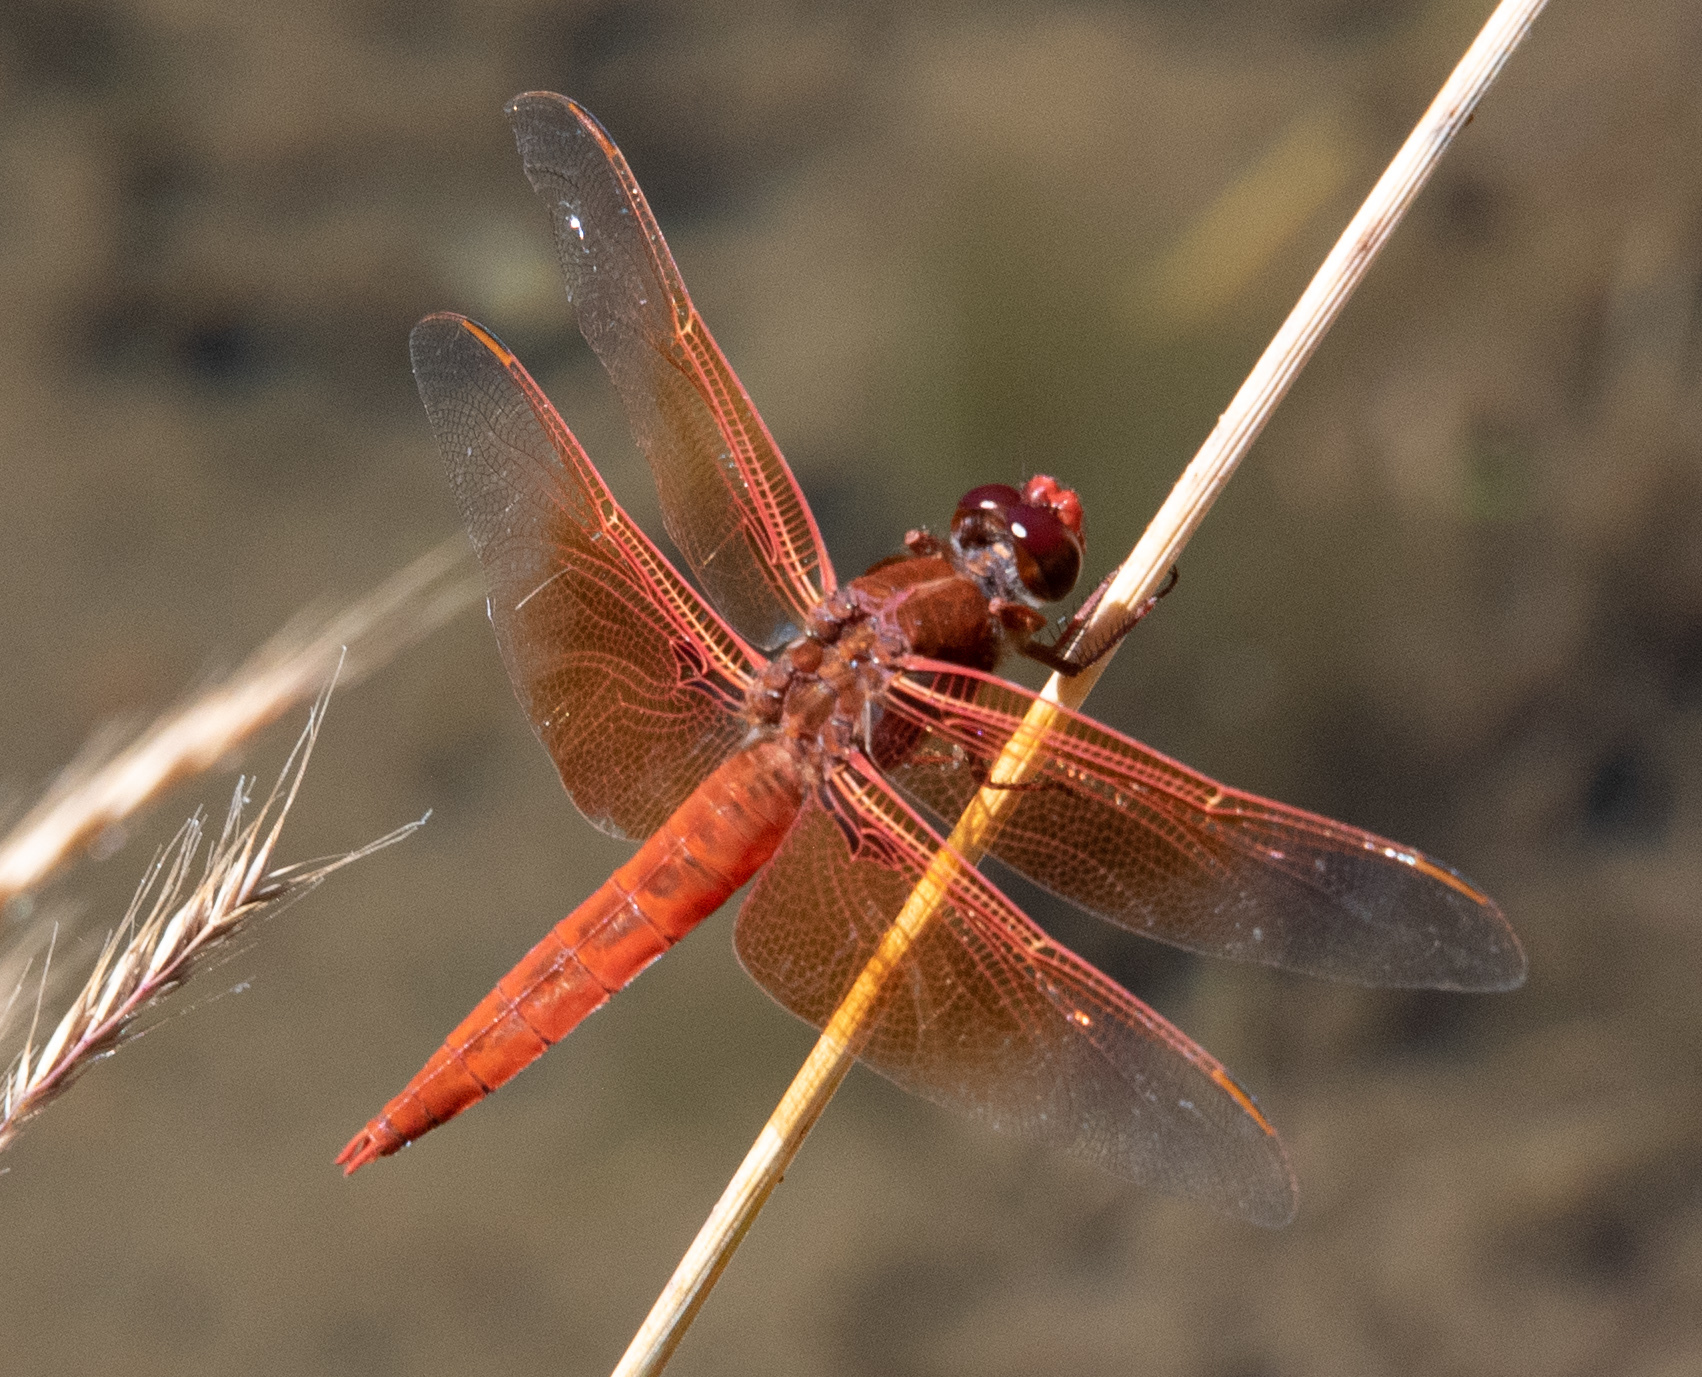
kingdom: Animalia
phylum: Arthropoda
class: Insecta
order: Odonata
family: Libellulidae
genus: Libellula
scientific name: Libellula saturata
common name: Flame skimmer
